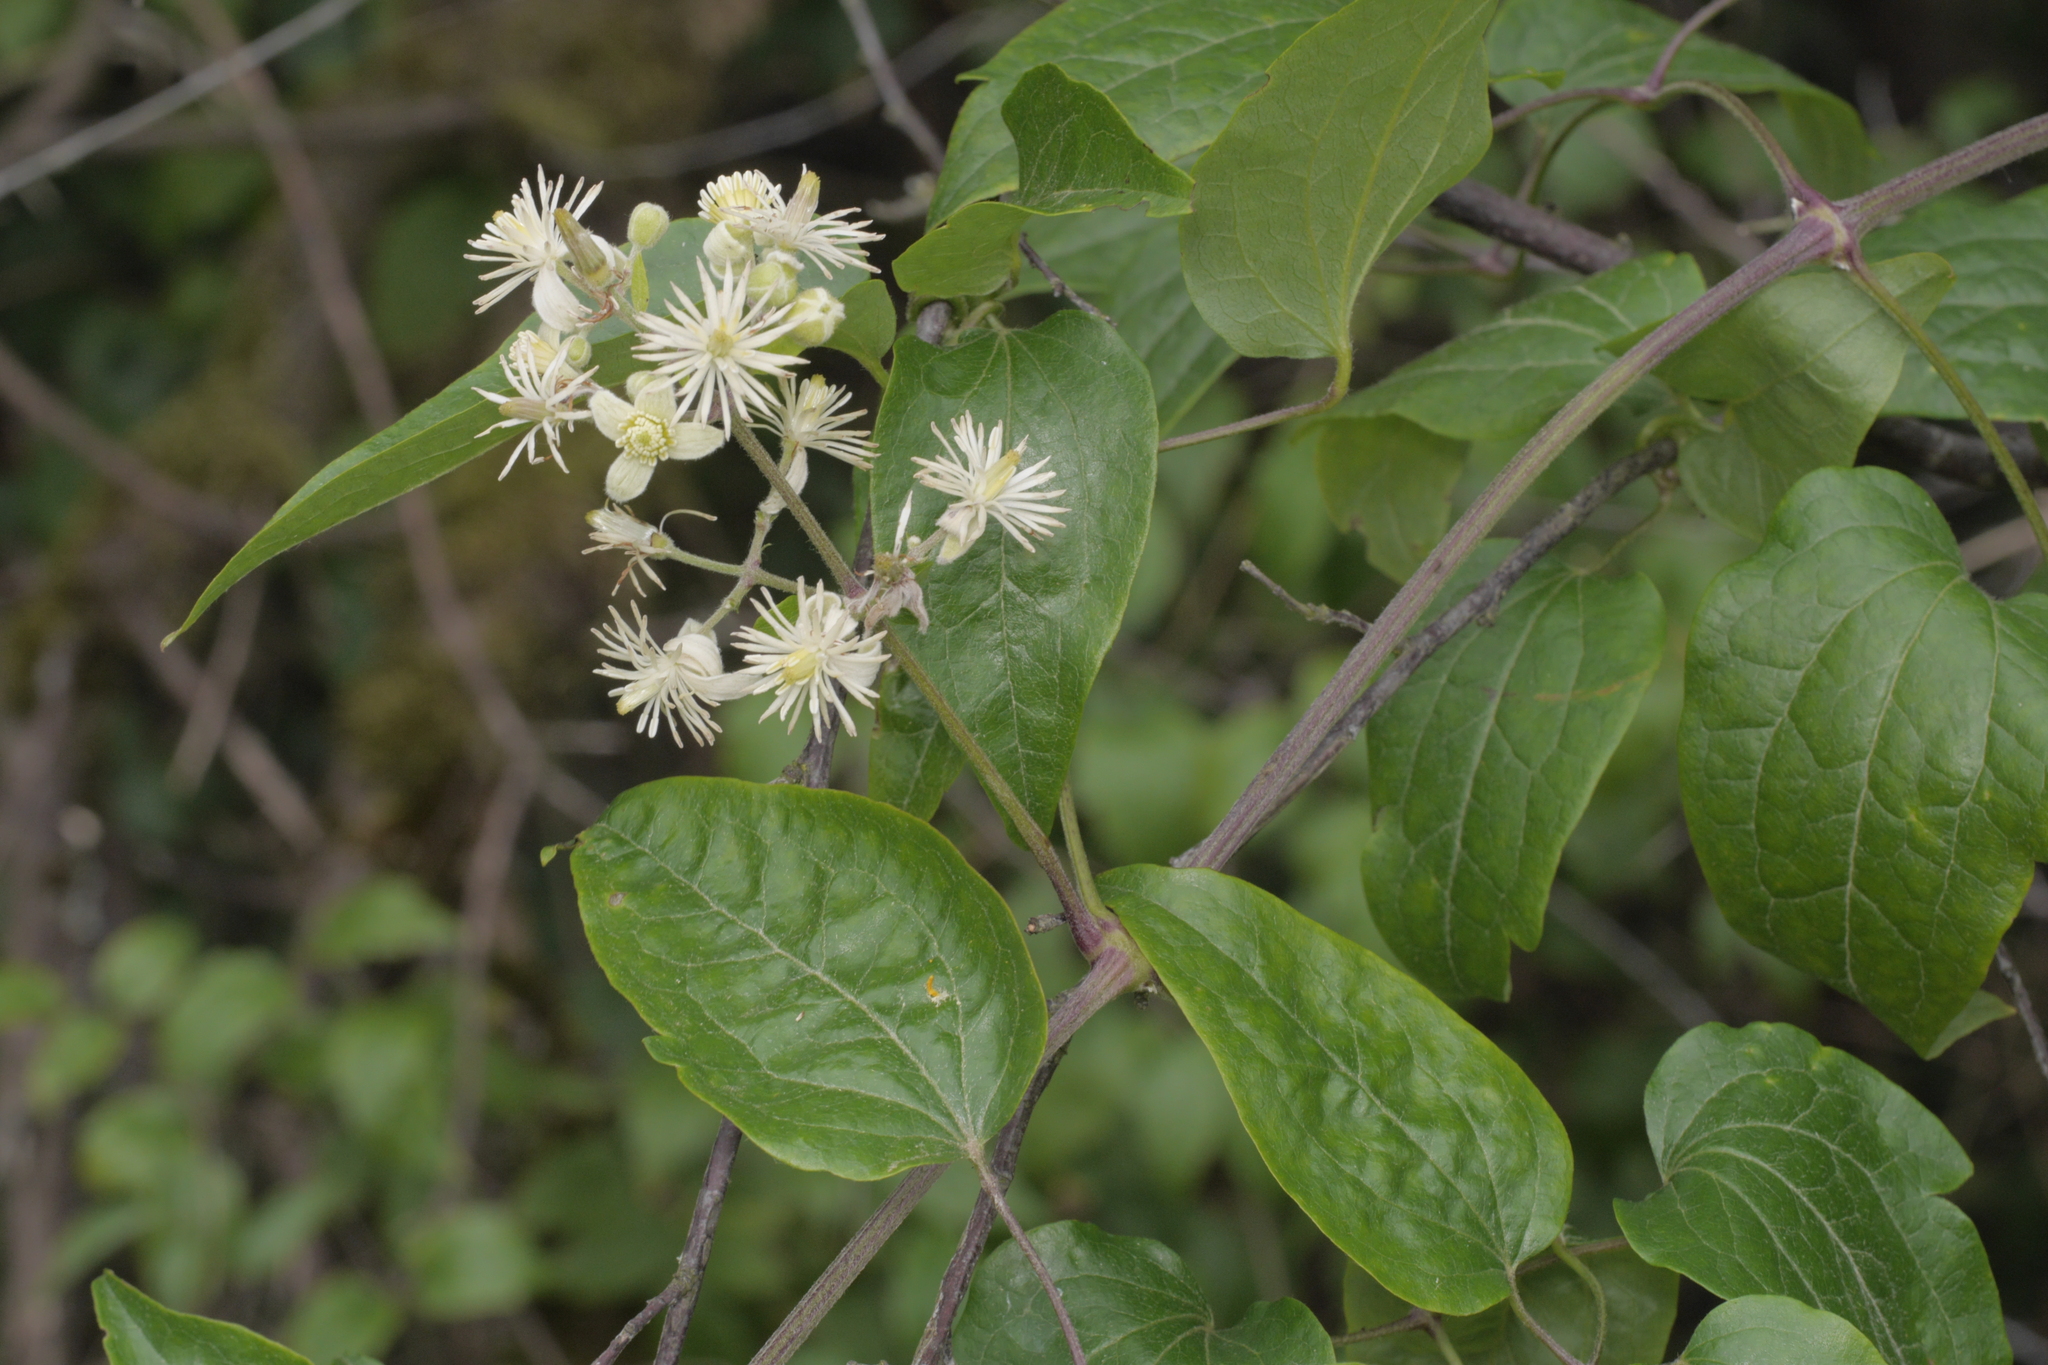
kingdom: Plantae
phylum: Tracheophyta
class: Magnoliopsida
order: Ranunculales
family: Ranunculaceae
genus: Clematis
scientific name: Clematis vitalba
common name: Evergreen clematis
